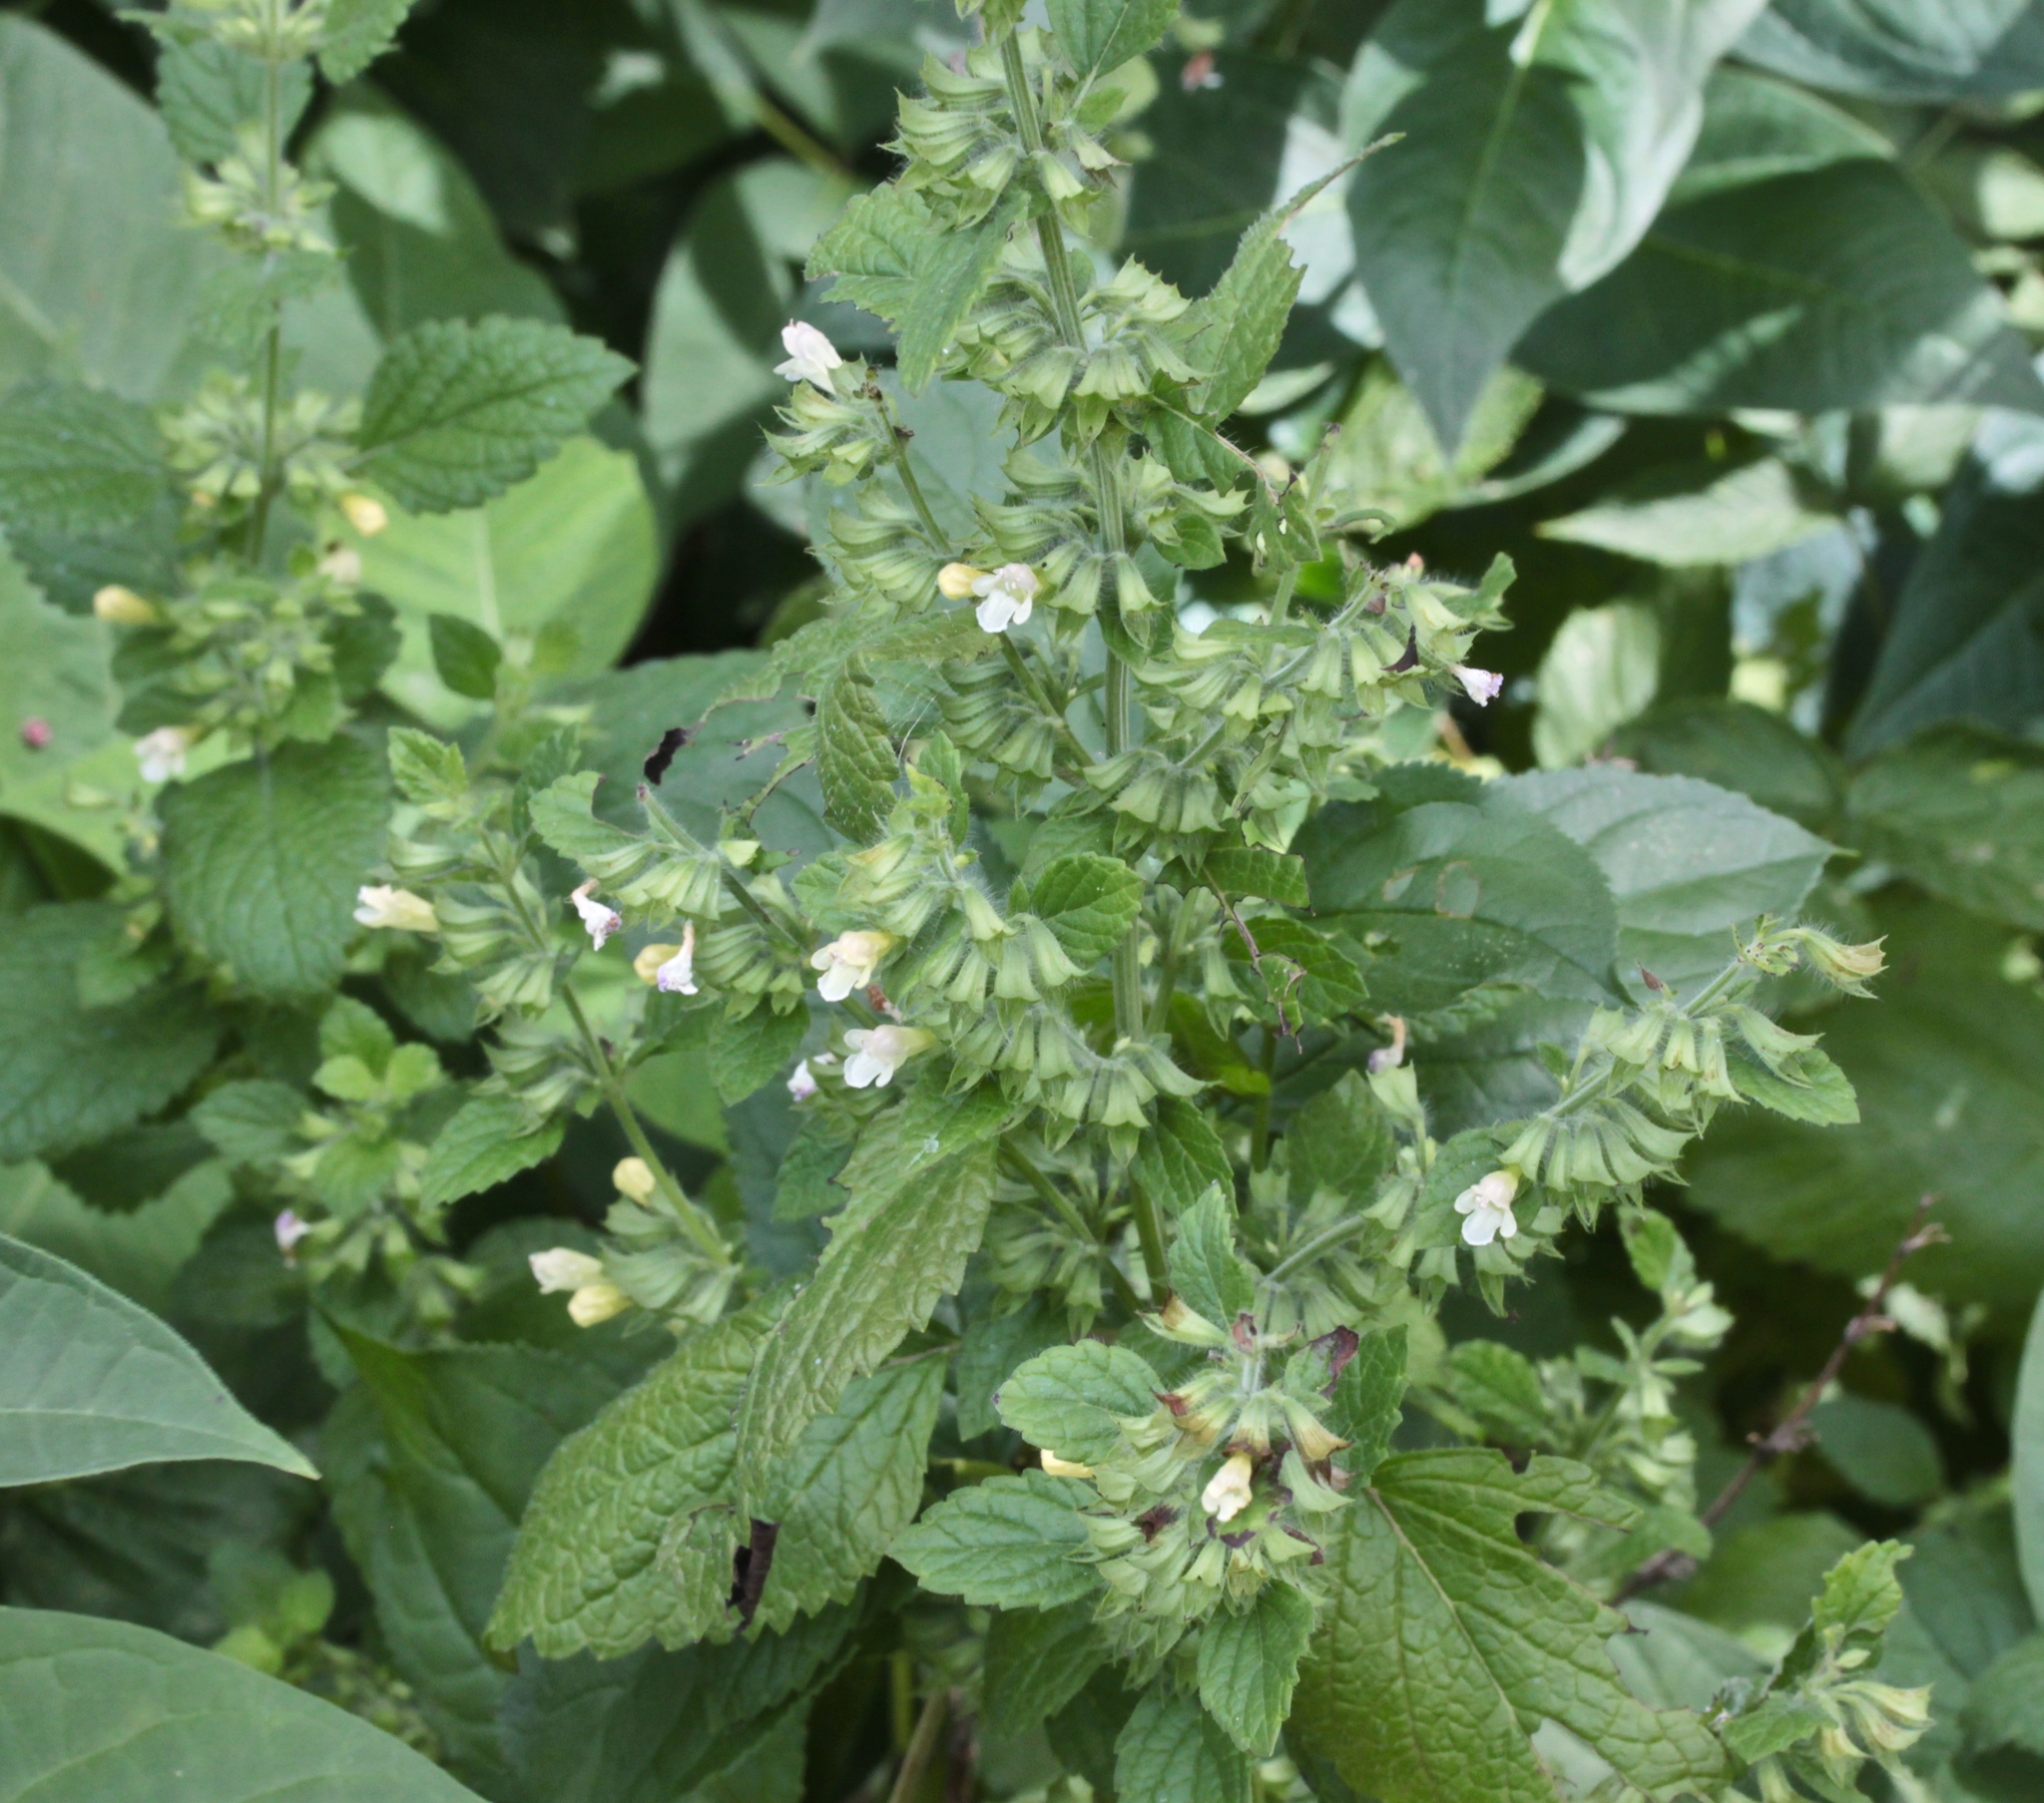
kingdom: Plantae
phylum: Tracheophyta
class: Magnoliopsida
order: Lamiales
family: Lamiaceae
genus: Melissa
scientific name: Melissa officinalis
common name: Balm
